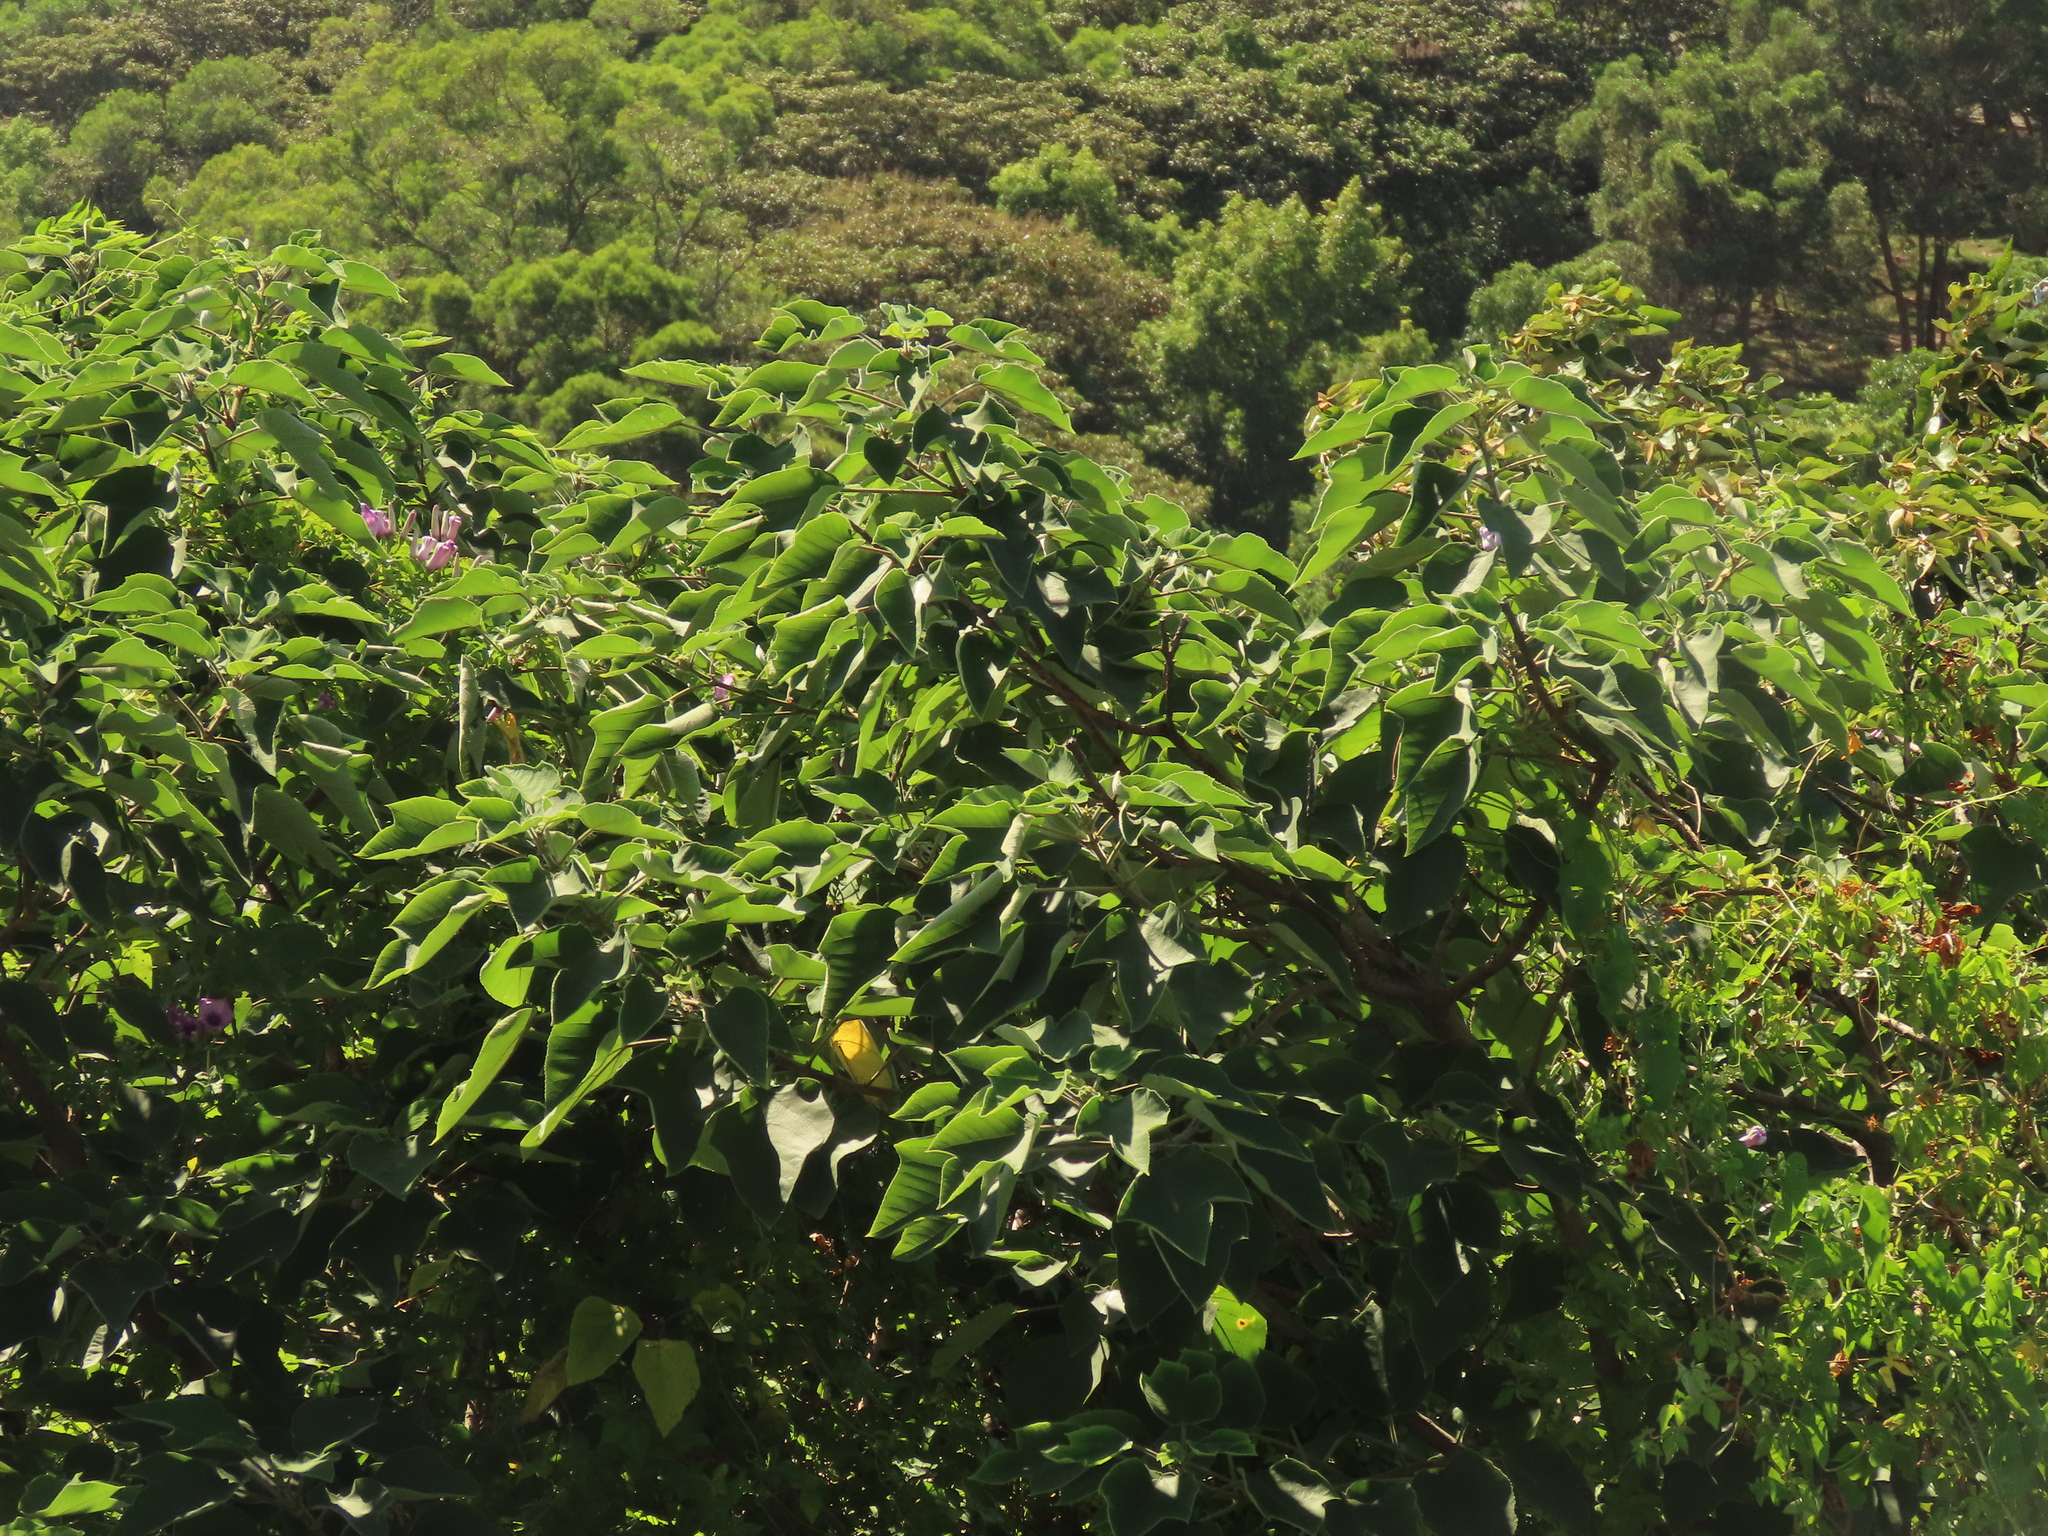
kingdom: Plantae
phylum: Tracheophyta
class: Magnoliopsida
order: Rosales
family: Moraceae
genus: Broussonetia
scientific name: Broussonetia papyrifera
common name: Paper mulberry
